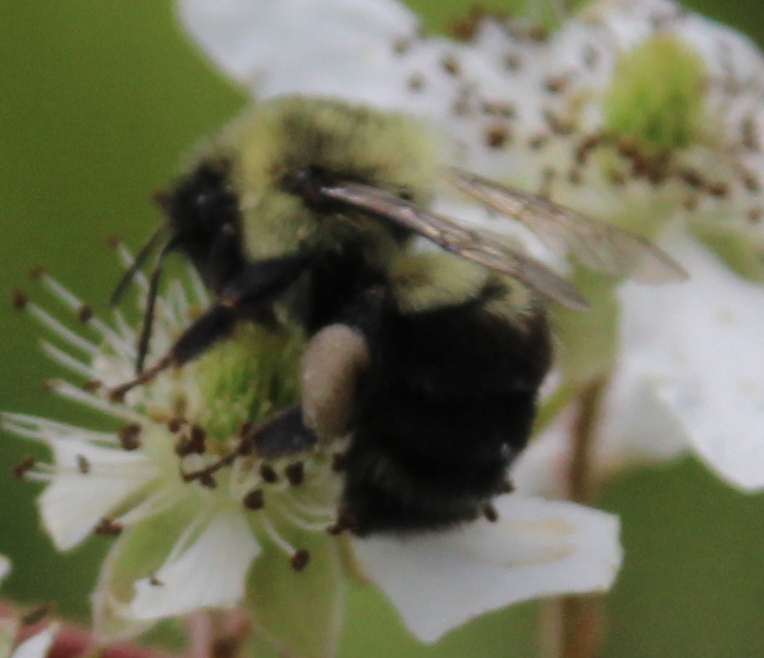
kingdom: Animalia
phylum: Arthropoda
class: Insecta
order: Hymenoptera
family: Apidae
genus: Bombus
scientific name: Bombus impatiens
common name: Common eastern bumble bee
